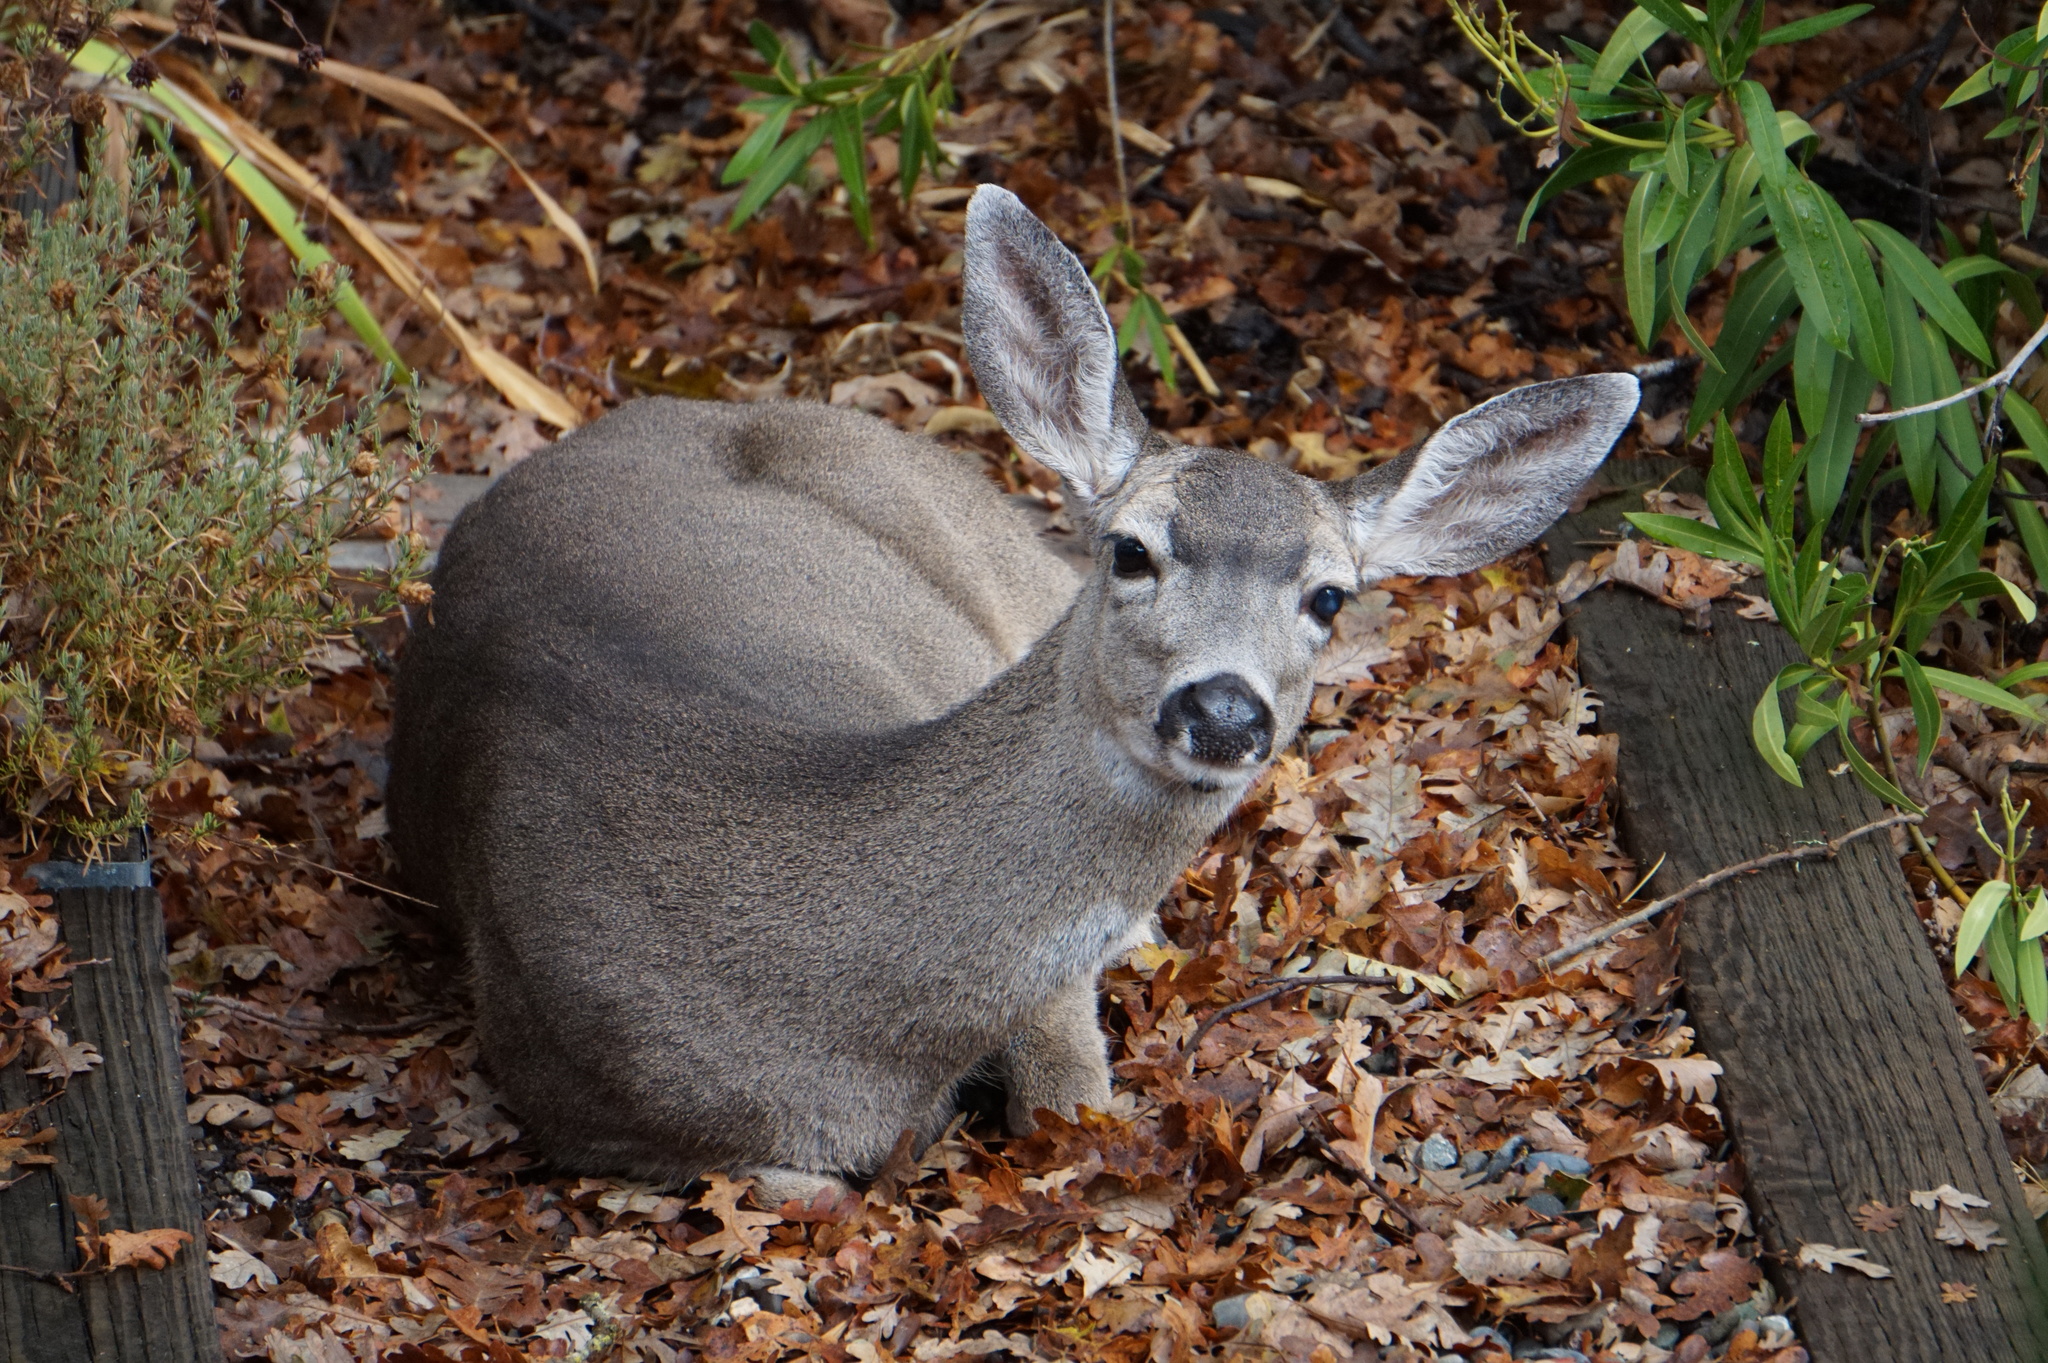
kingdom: Animalia
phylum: Chordata
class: Mammalia
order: Artiodactyla
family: Cervidae
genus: Odocoileus
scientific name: Odocoileus hemionus
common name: Mule deer
